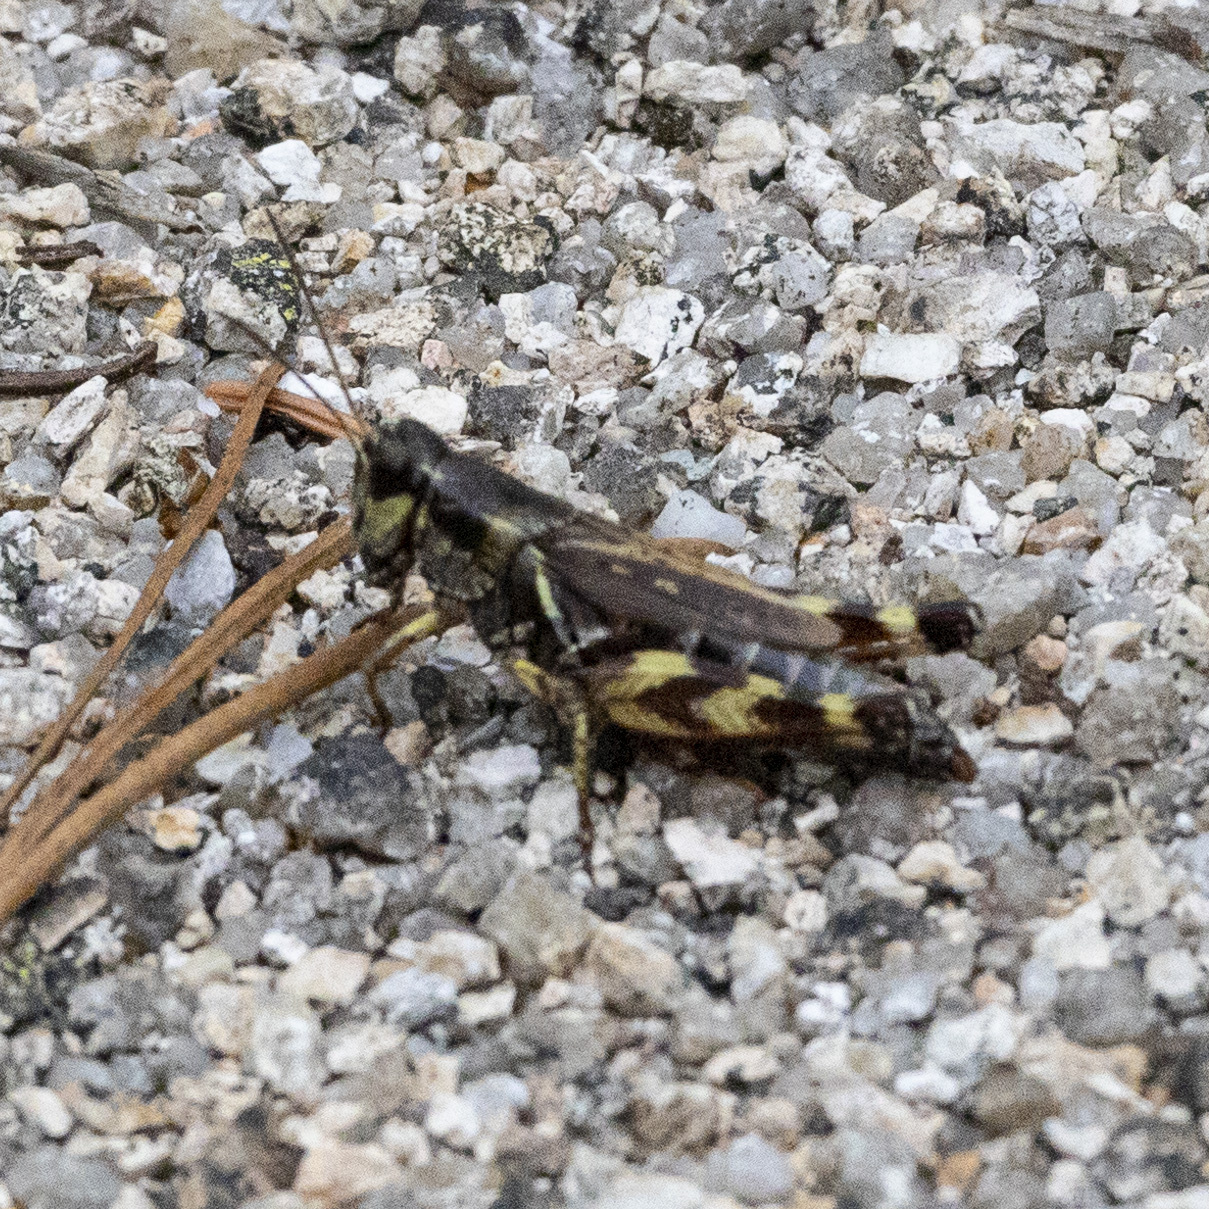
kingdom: Animalia
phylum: Arthropoda
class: Insecta
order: Orthoptera
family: Acrididae
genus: Melanoplus
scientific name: Melanoplus fasciatus
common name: Huckleberry locust
